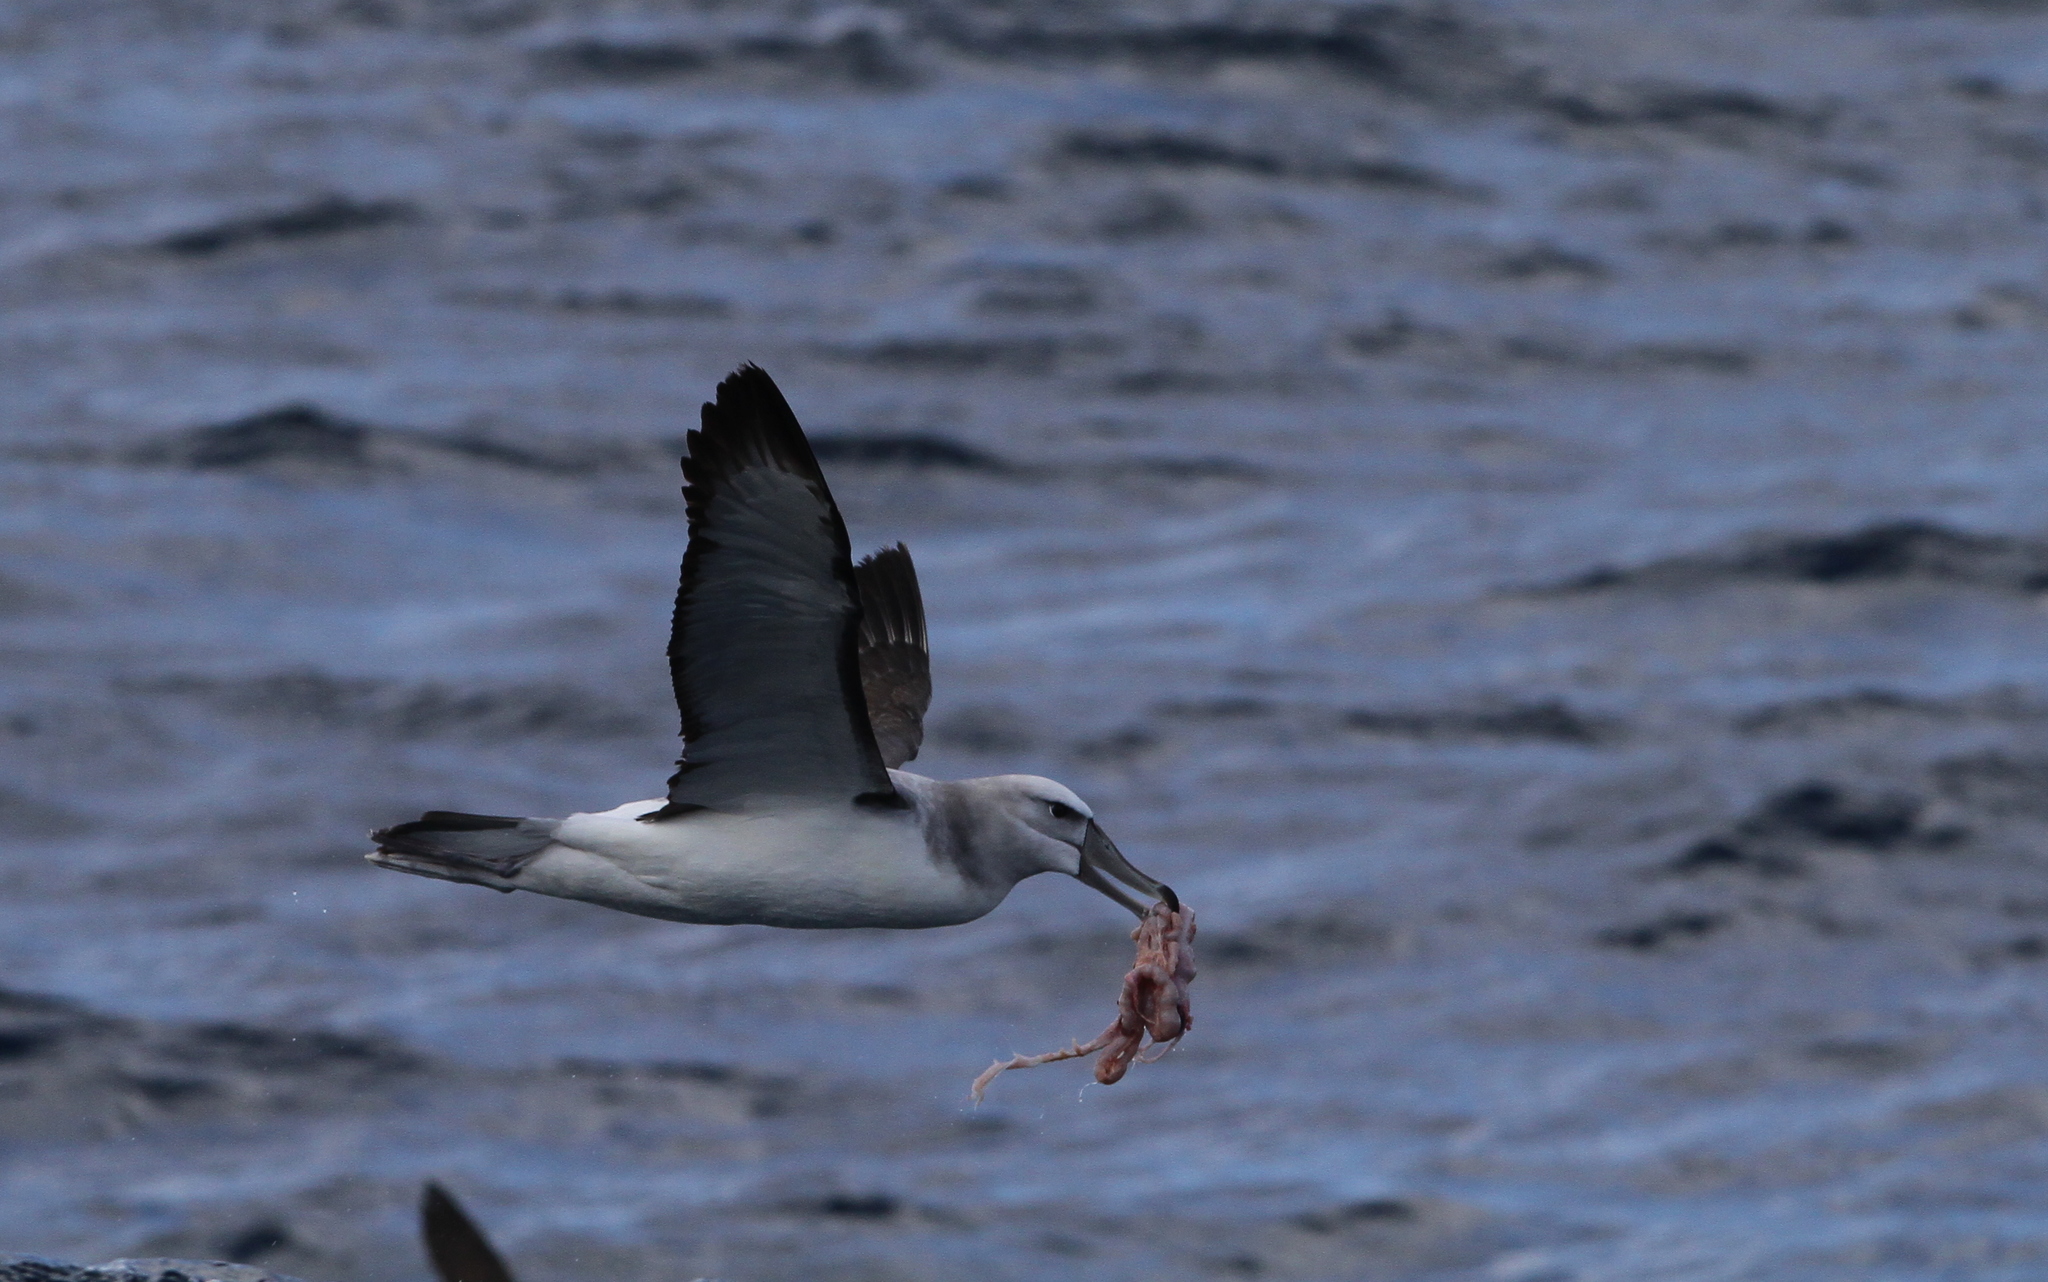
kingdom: Animalia
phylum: Chordata
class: Aves
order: Procellariiformes
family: Diomedeidae
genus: Thalassarche
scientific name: Thalassarche cauta
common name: Shy albatross
